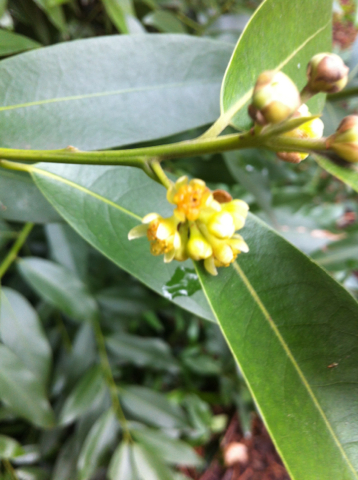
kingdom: Plantae
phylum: Tracheophyta
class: Magnoliopsida
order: Laurales
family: Lauraceae
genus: Umbellularia
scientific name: Umbellularia californica
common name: California bay
